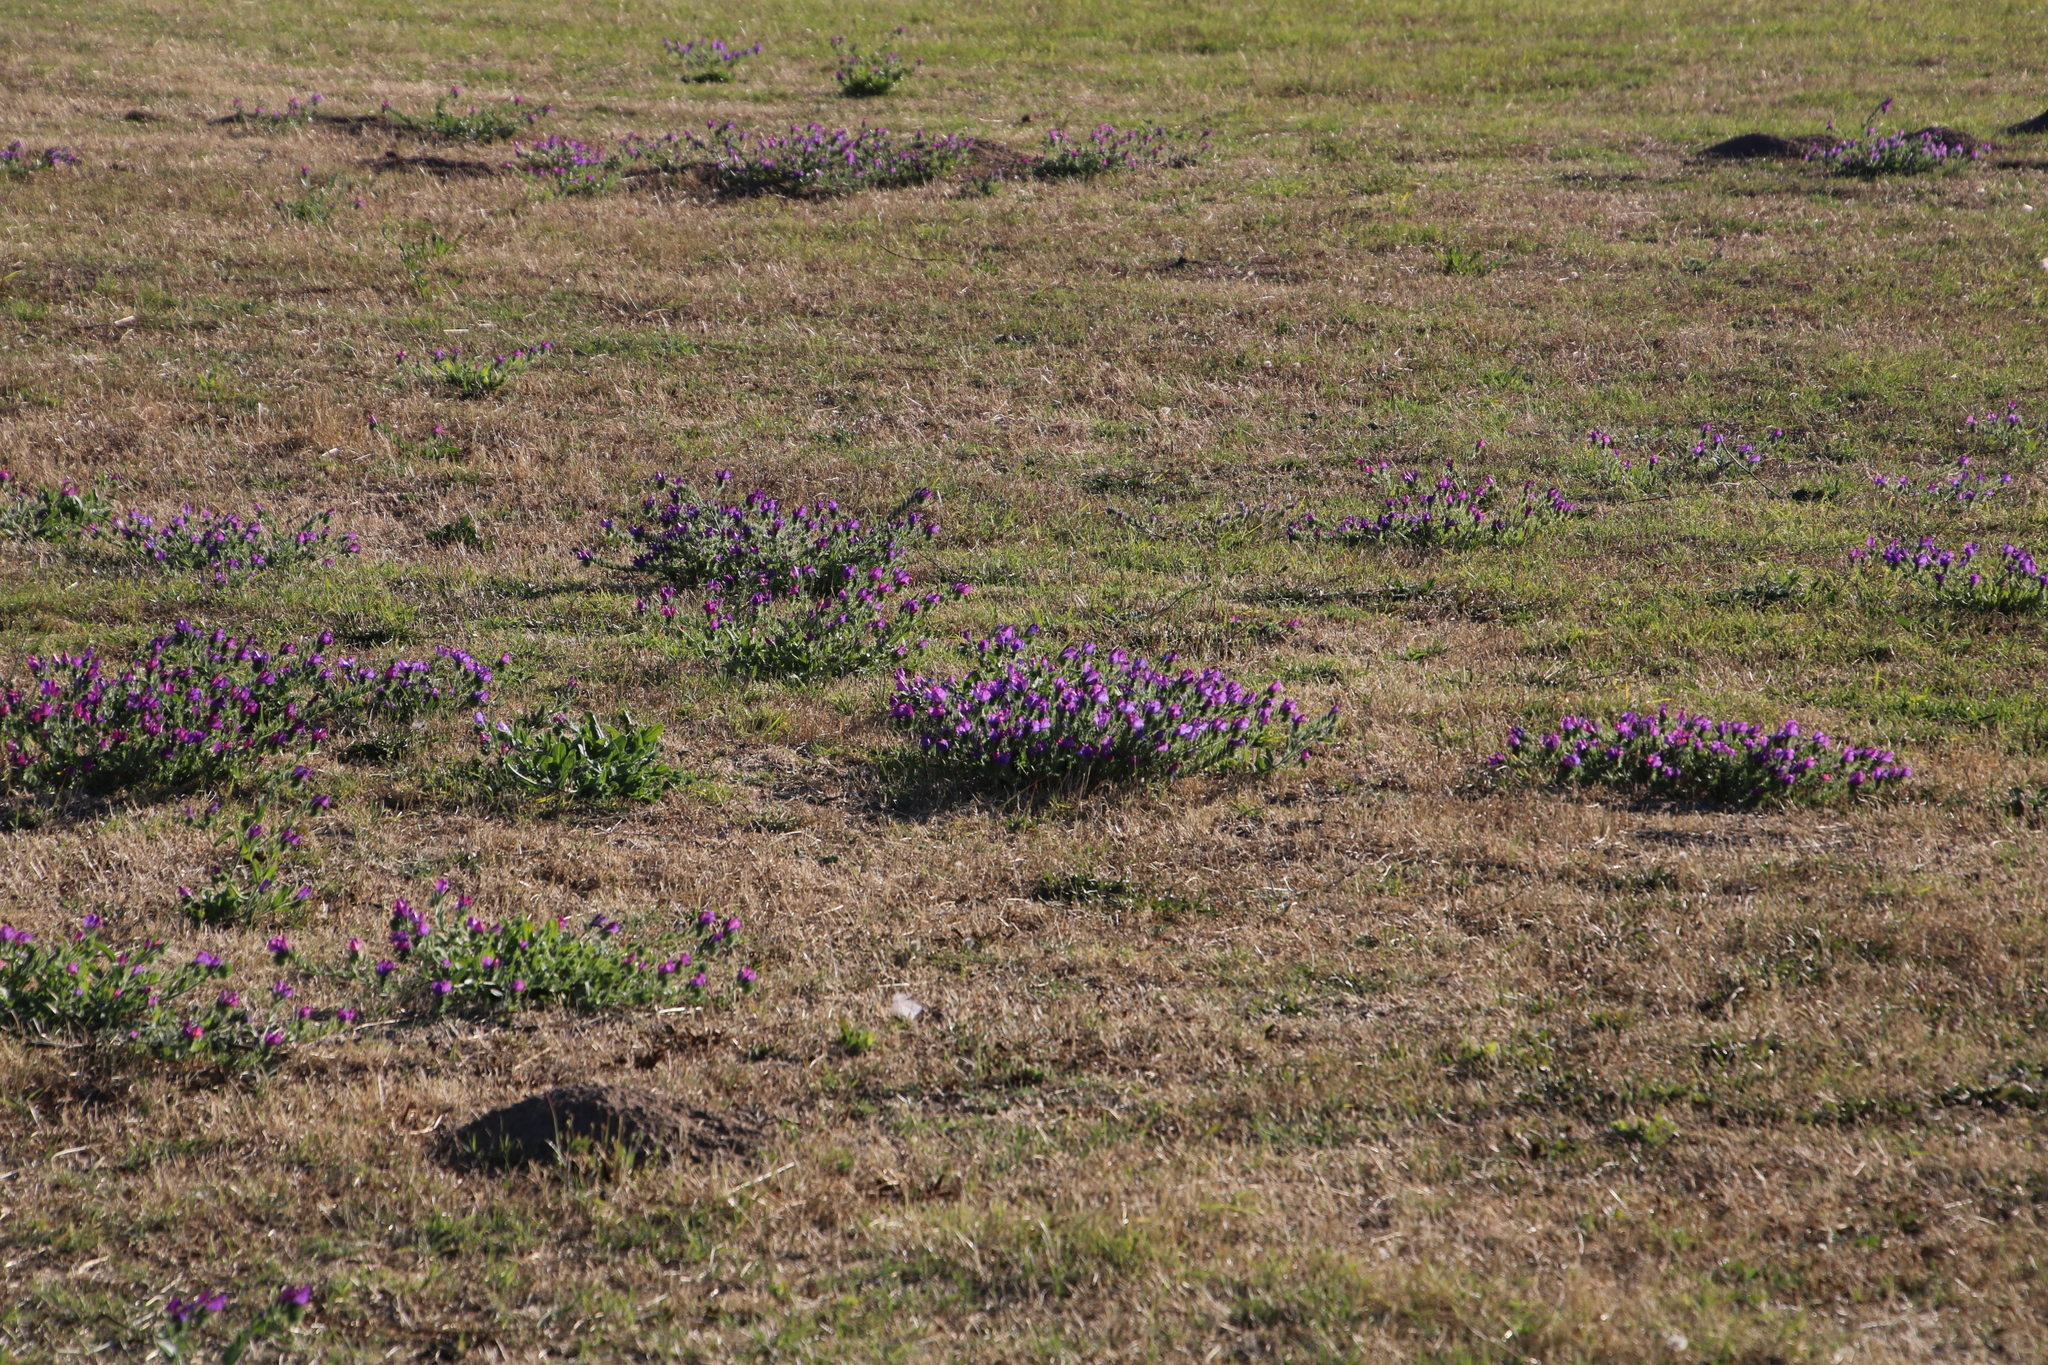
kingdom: Plantae
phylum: Tracheophyta
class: Magnoliopsida
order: Boraginales
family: Boraginaceae
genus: Echium
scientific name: Echium plantagineum
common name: Purple viper's-bugloss
